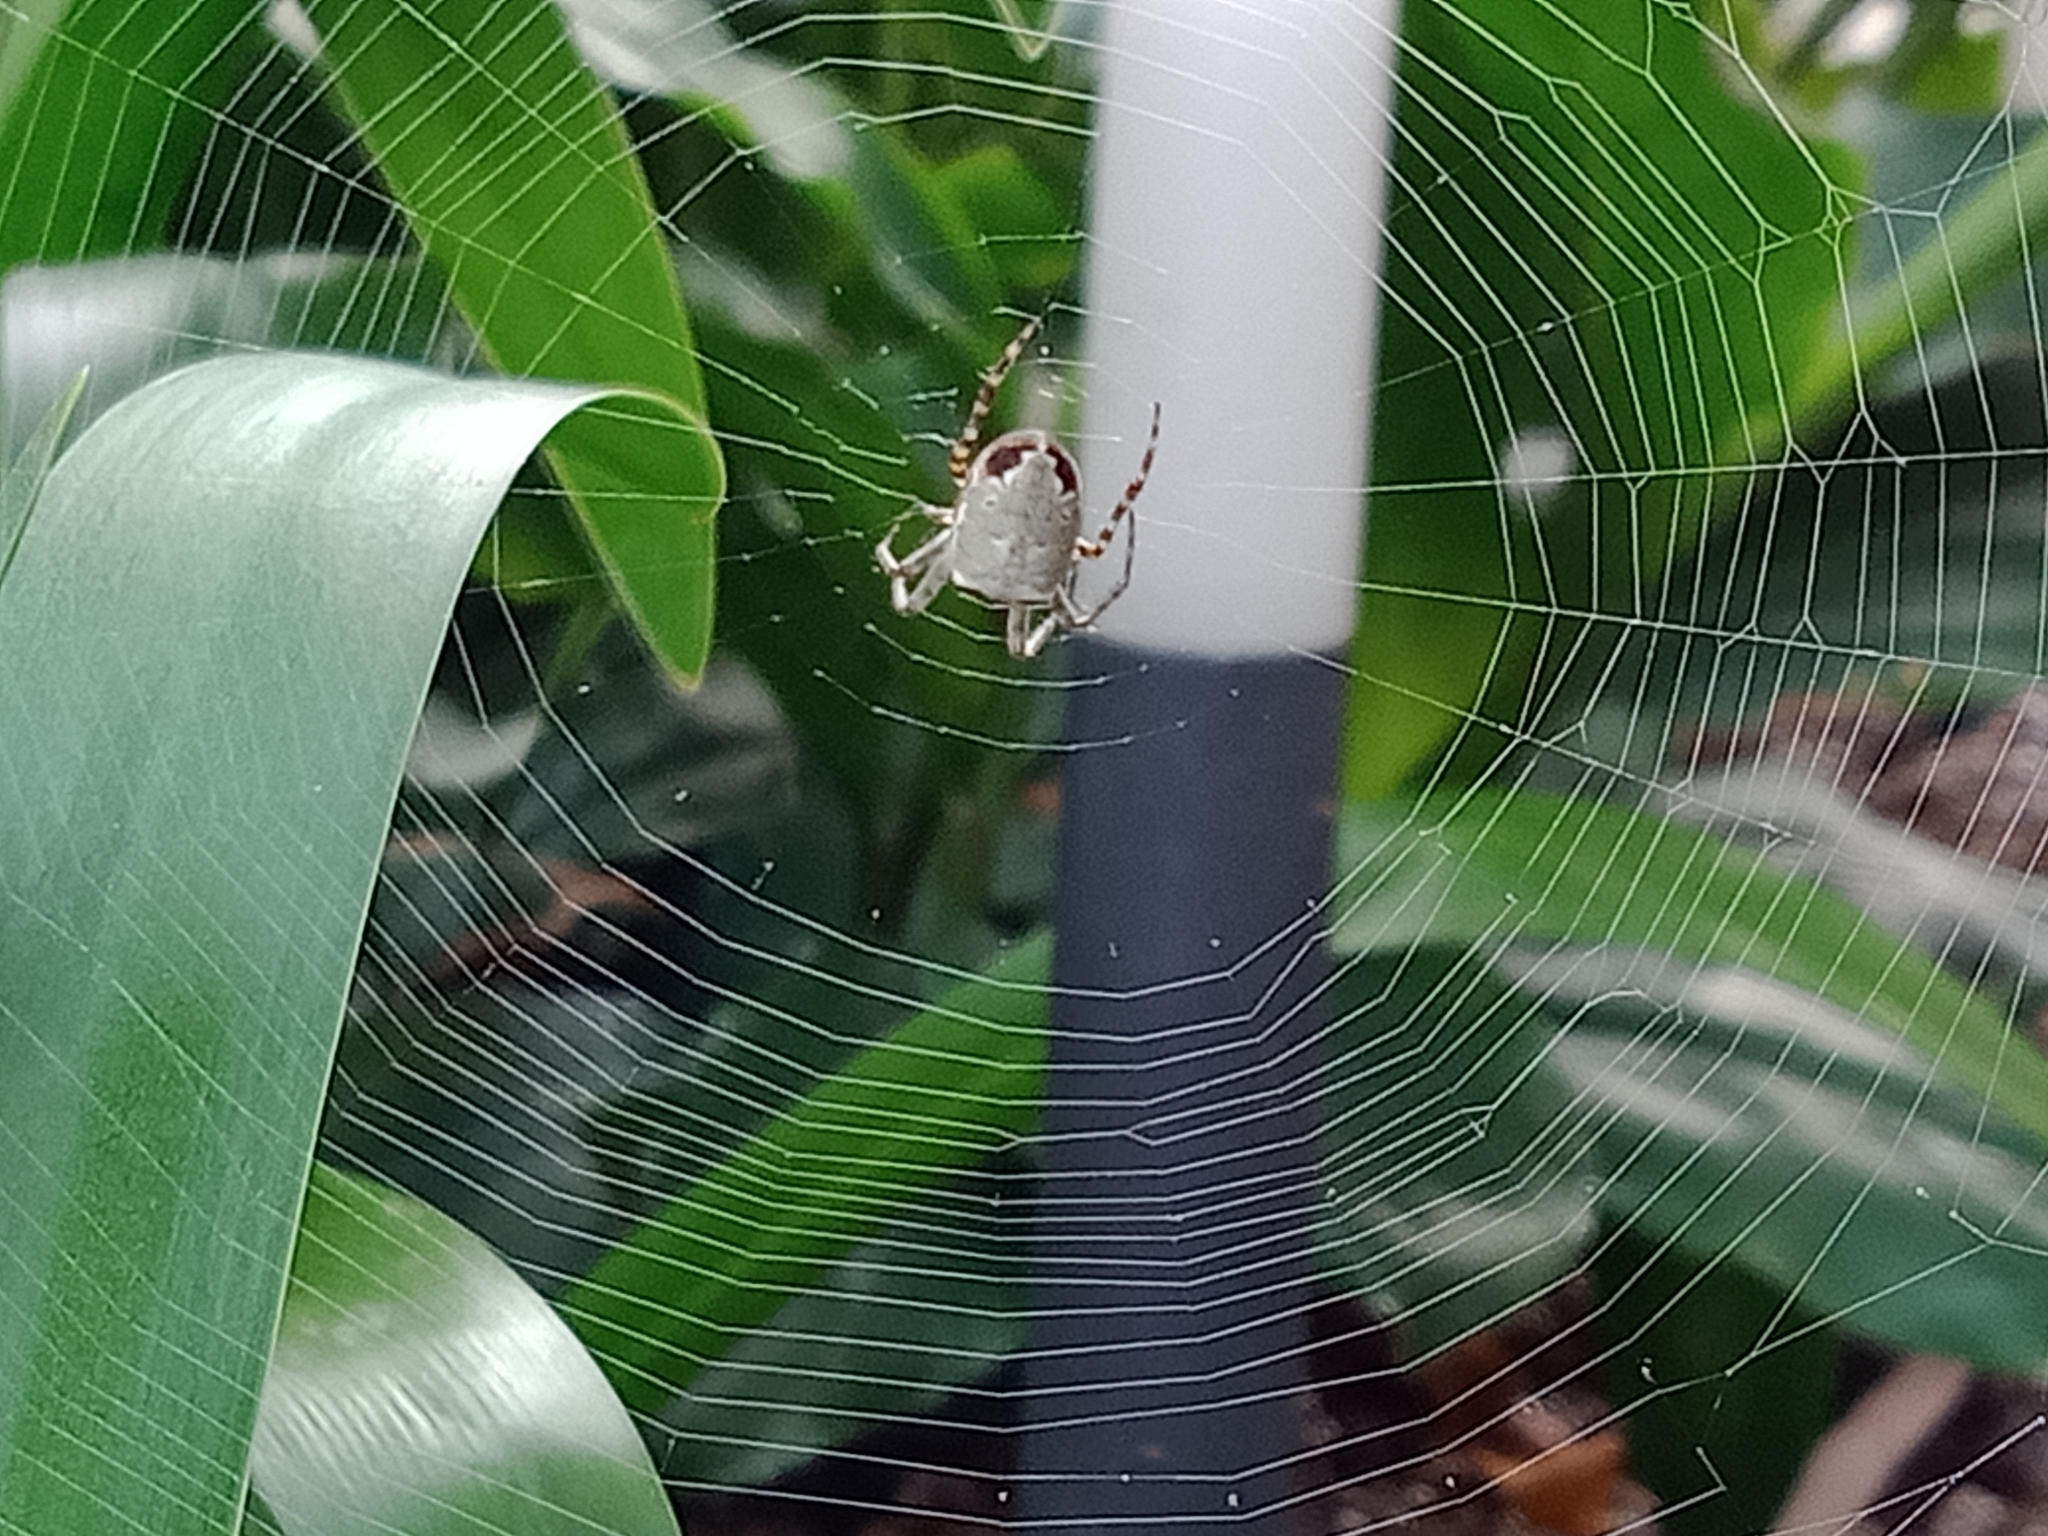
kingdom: Animalia
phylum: Arthropoda
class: Arachnida
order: Araneae
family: Araneidae
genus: Plebs
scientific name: Plebs eburnus
